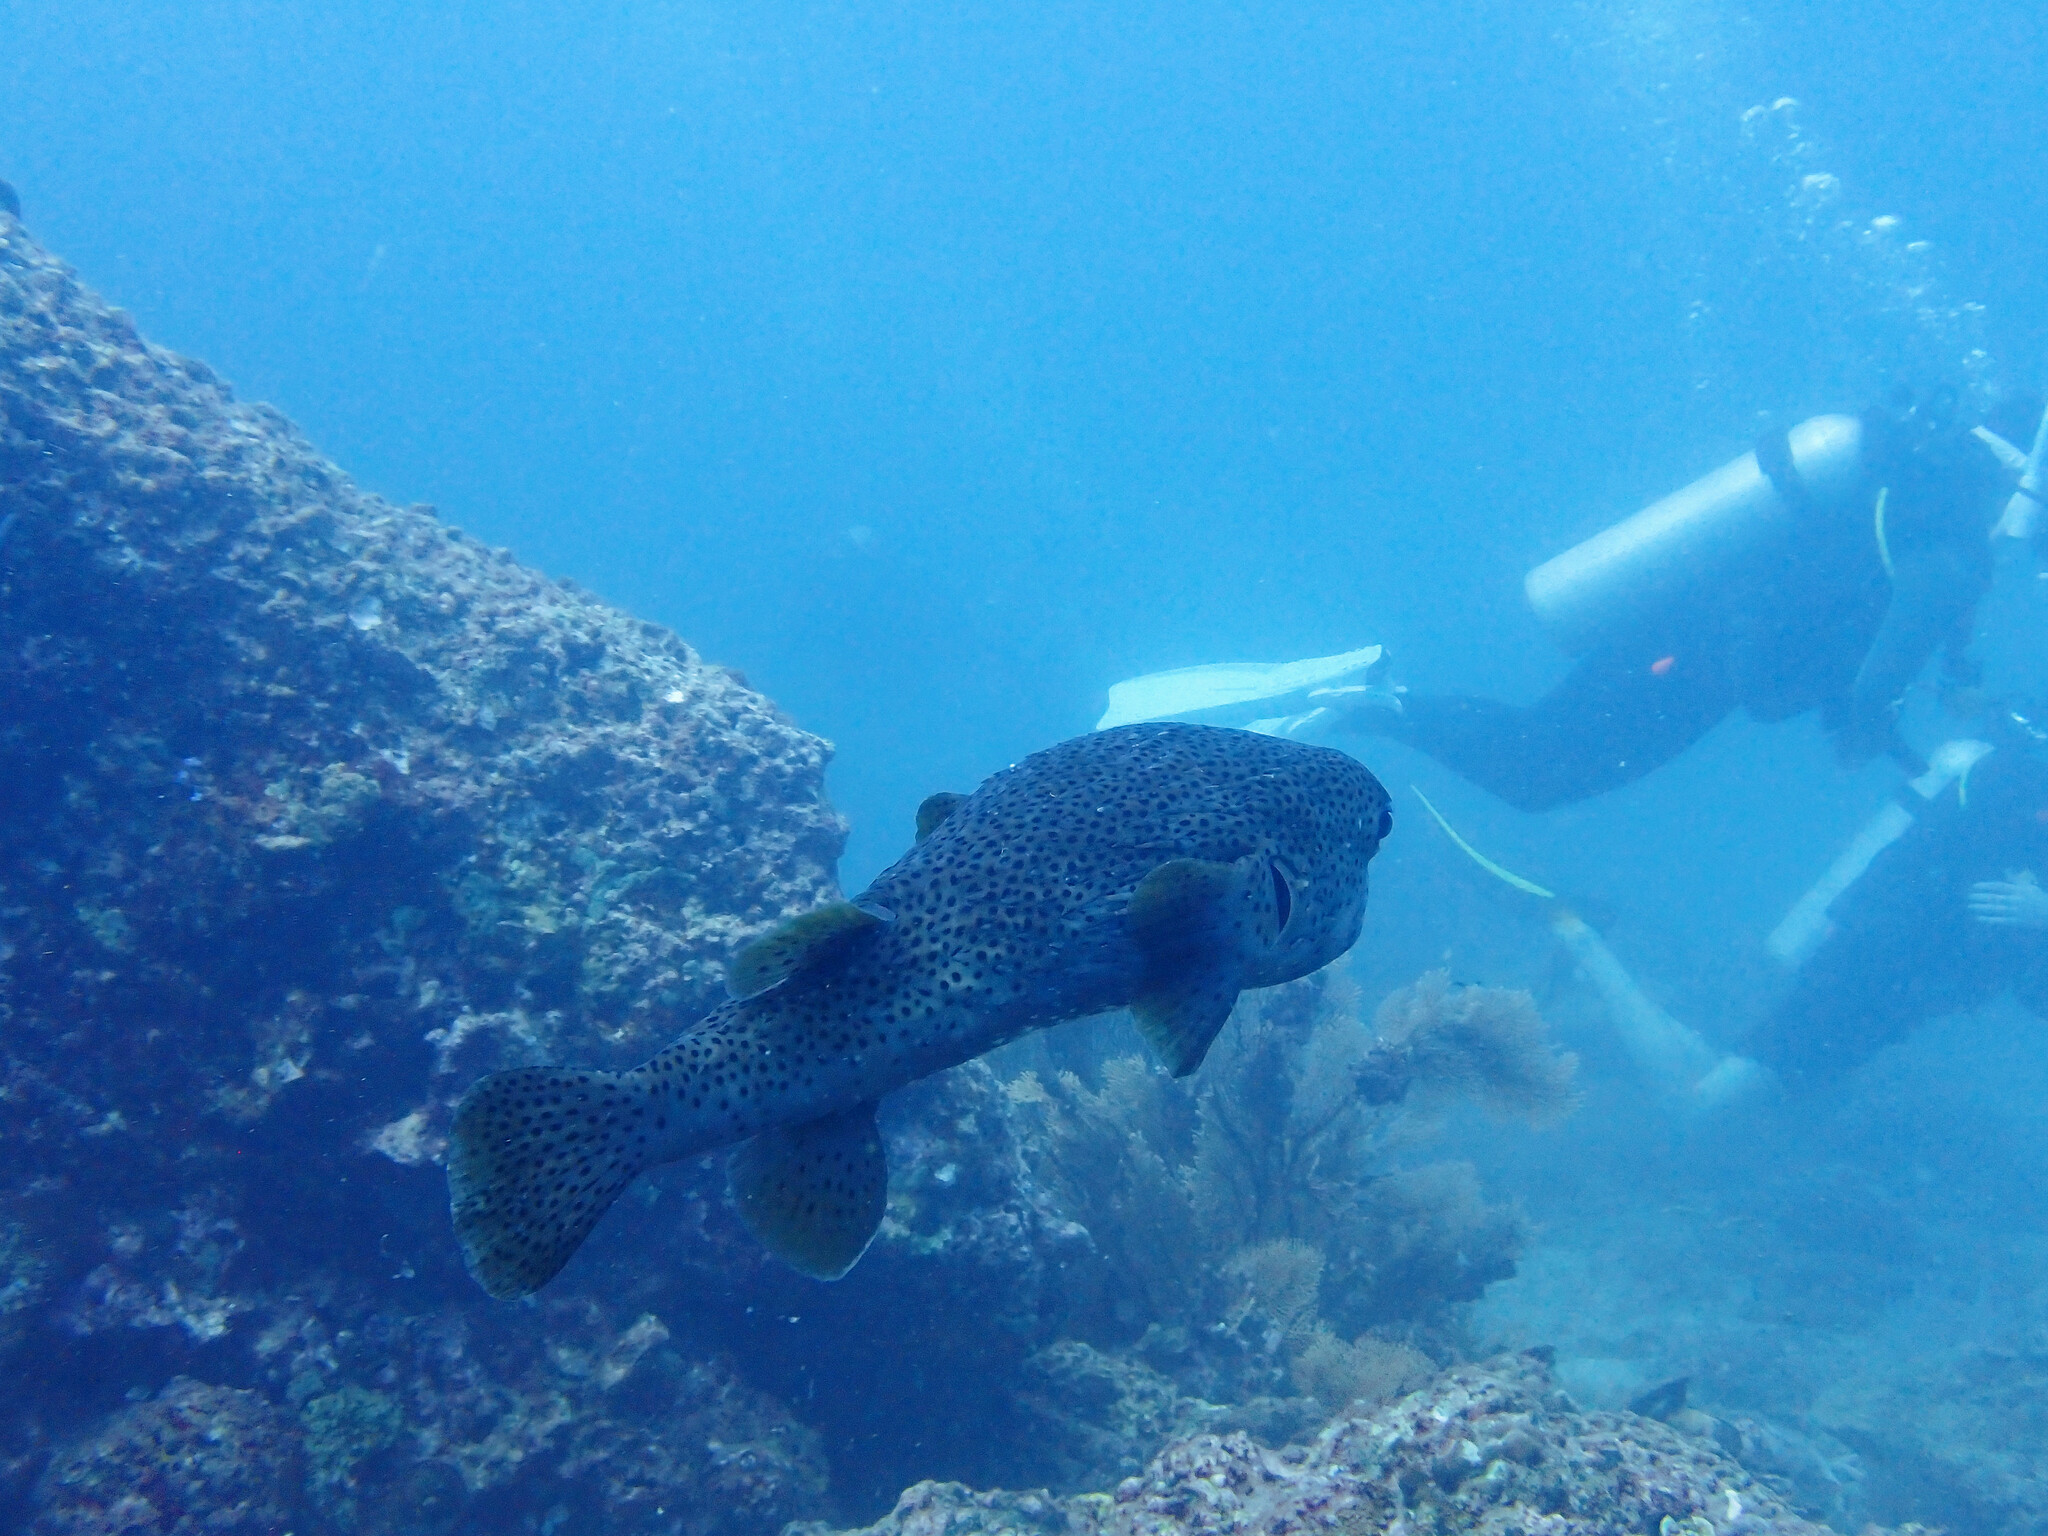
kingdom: Animalia
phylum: Chordata
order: Tetraodontiformes
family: Diodontidae
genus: Diodon
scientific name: Diodon hystrix
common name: Giant porcupinefish
